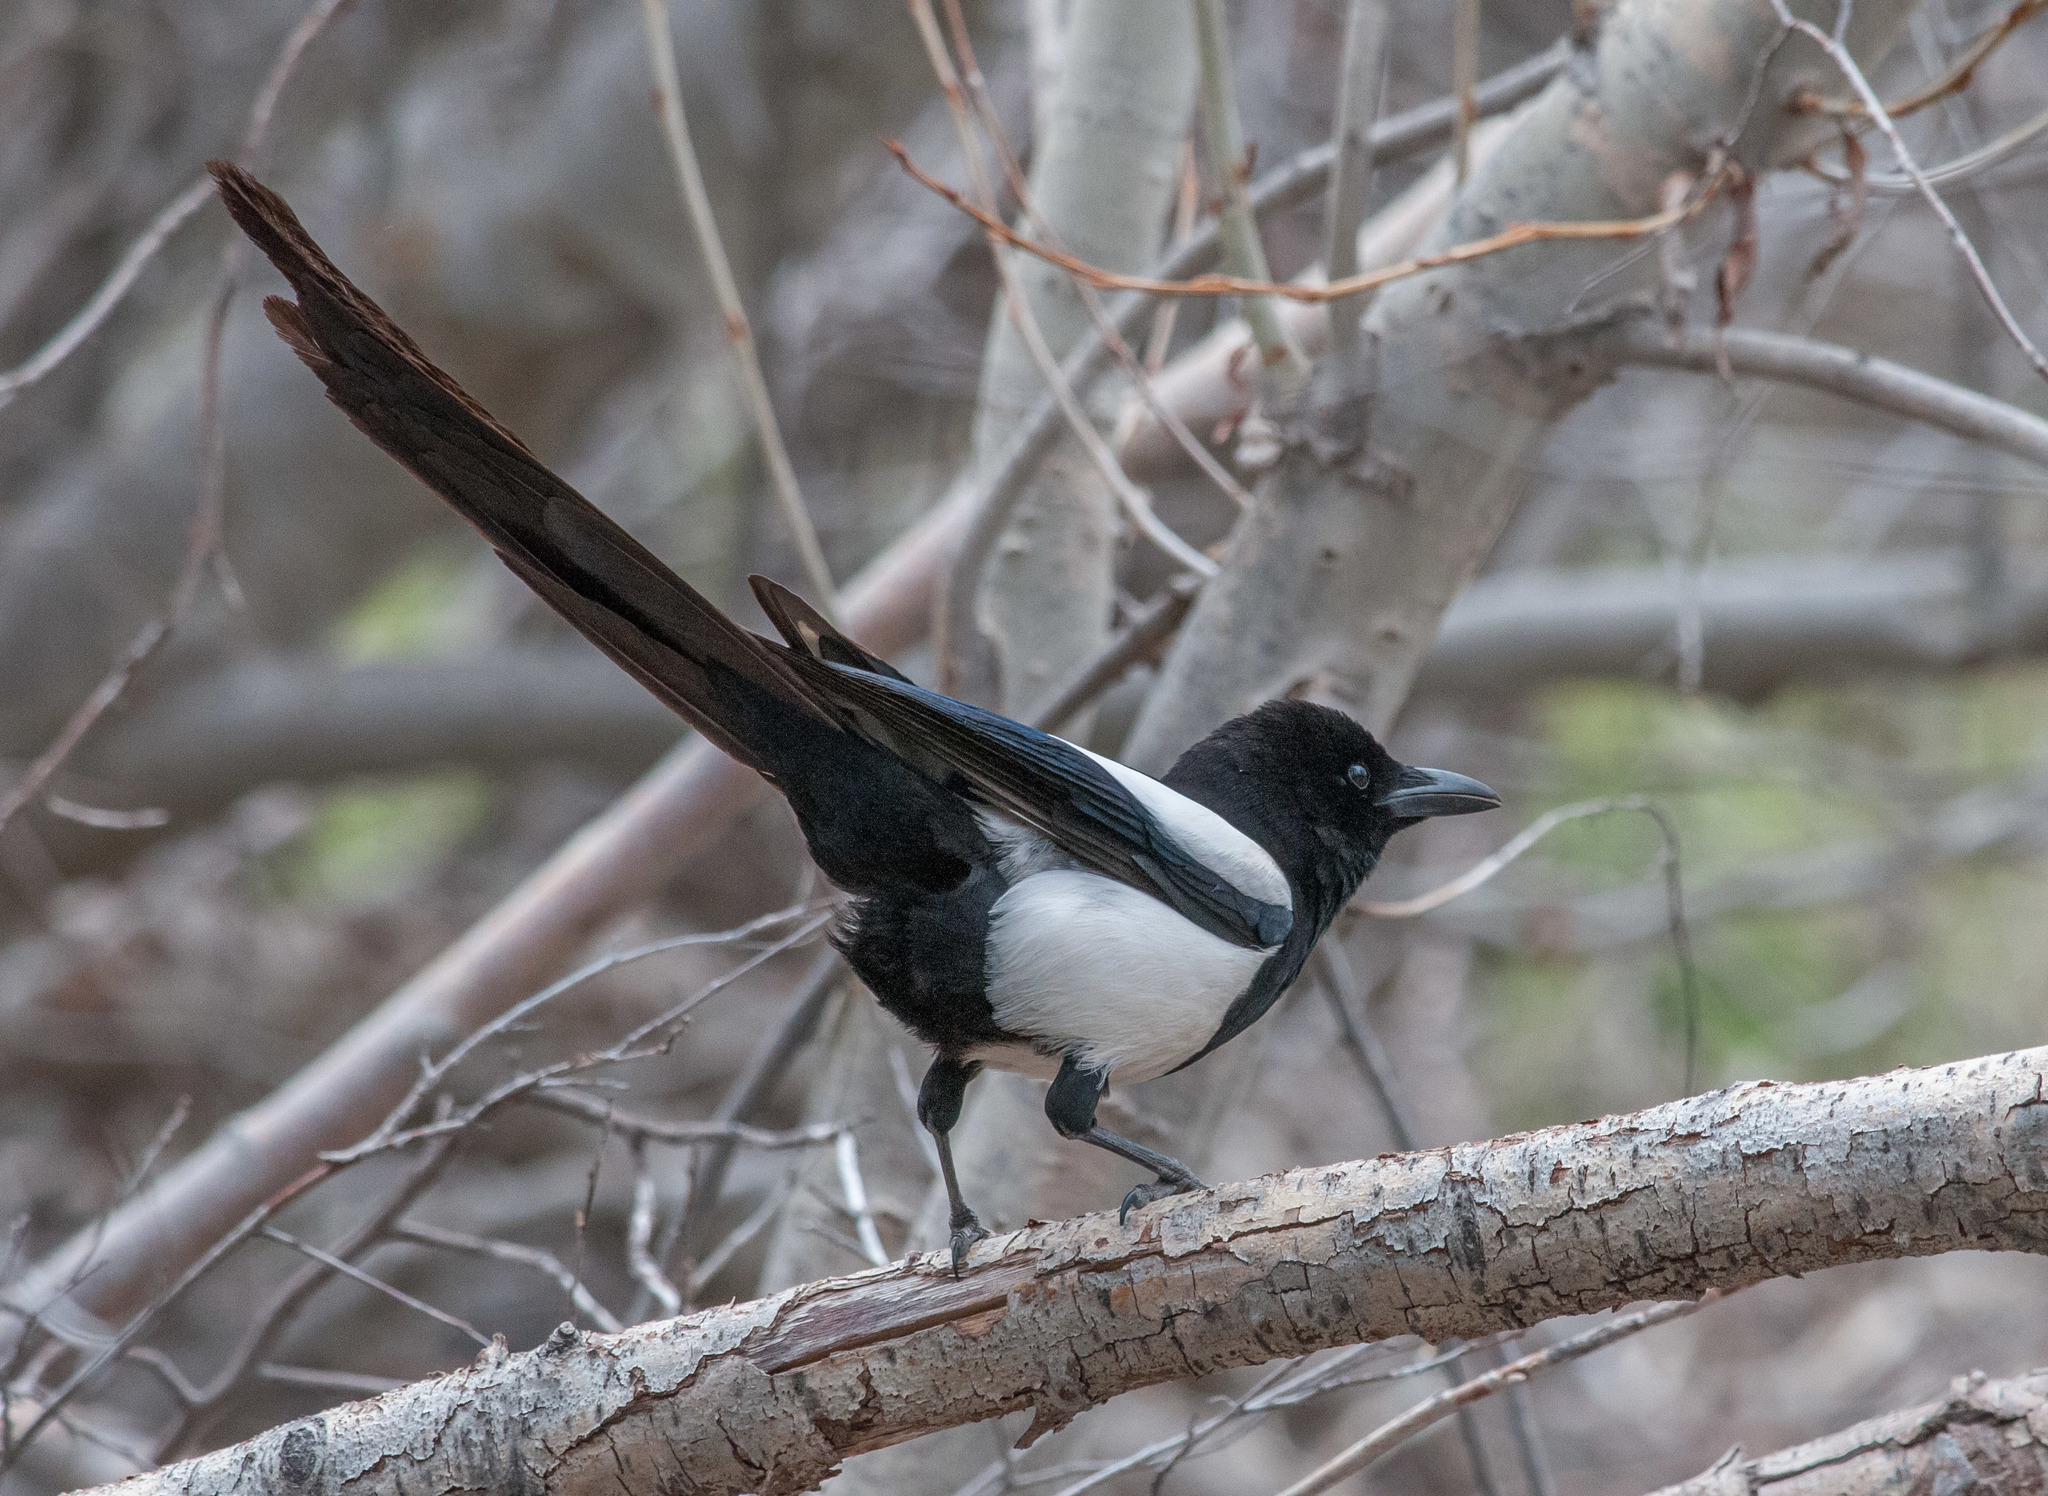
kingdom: Animalia
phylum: Chordata
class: Aves
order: Passeriformes
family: Corvidae
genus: Pica
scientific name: Pica hudsonia
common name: Black-billed magpie
